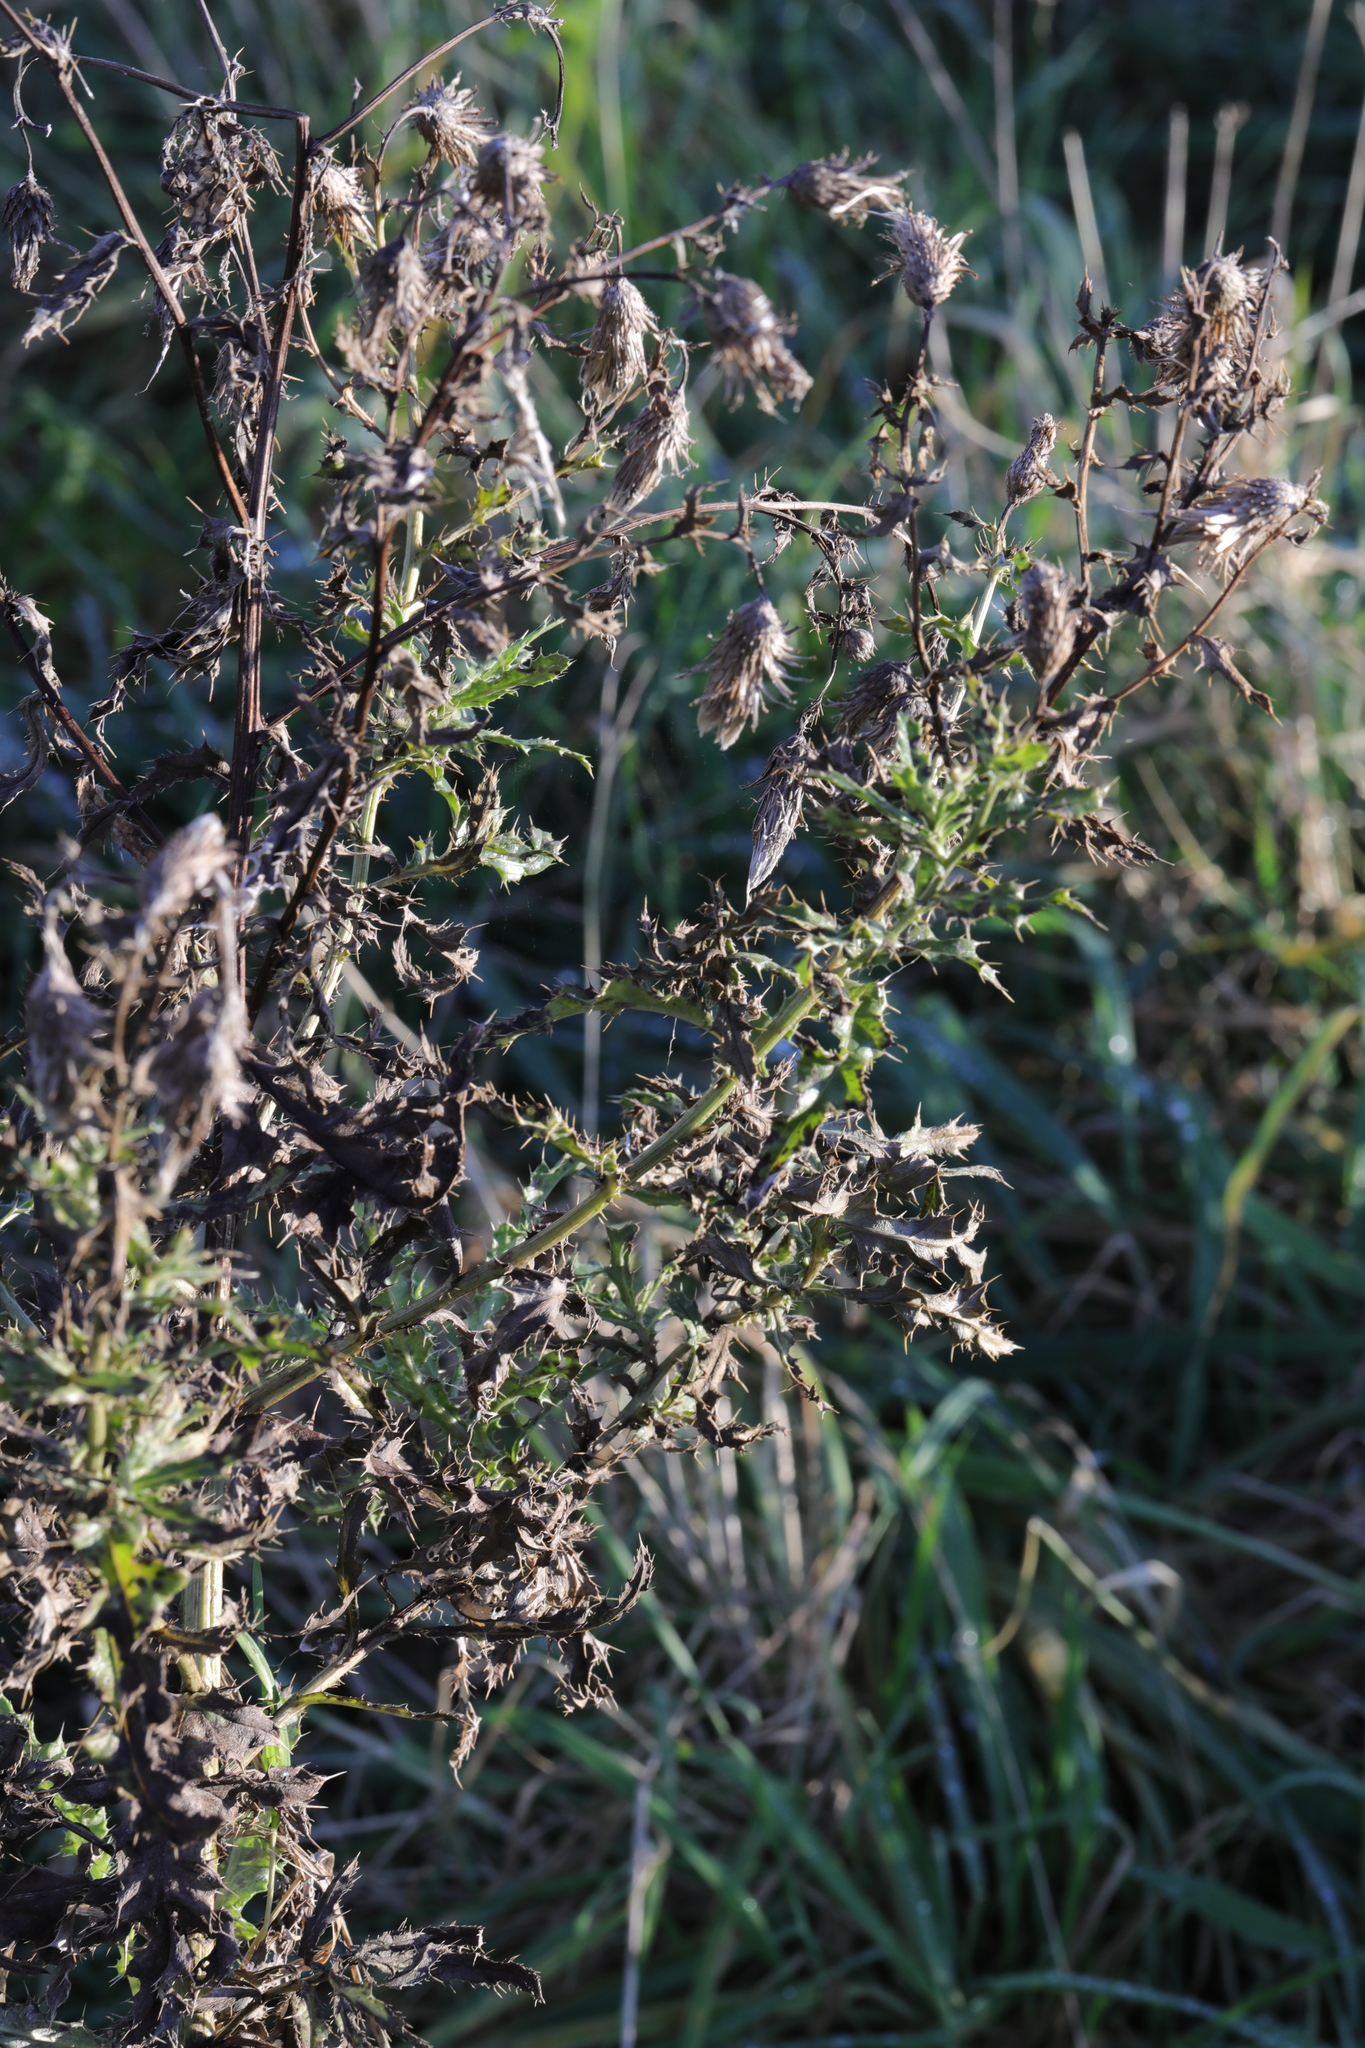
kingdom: Plantae
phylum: Tracheophyta
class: Magnoliopsida
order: Asterales
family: Asteraceae
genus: Cirsium
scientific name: Cirsium arvense
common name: Creeping thistle
